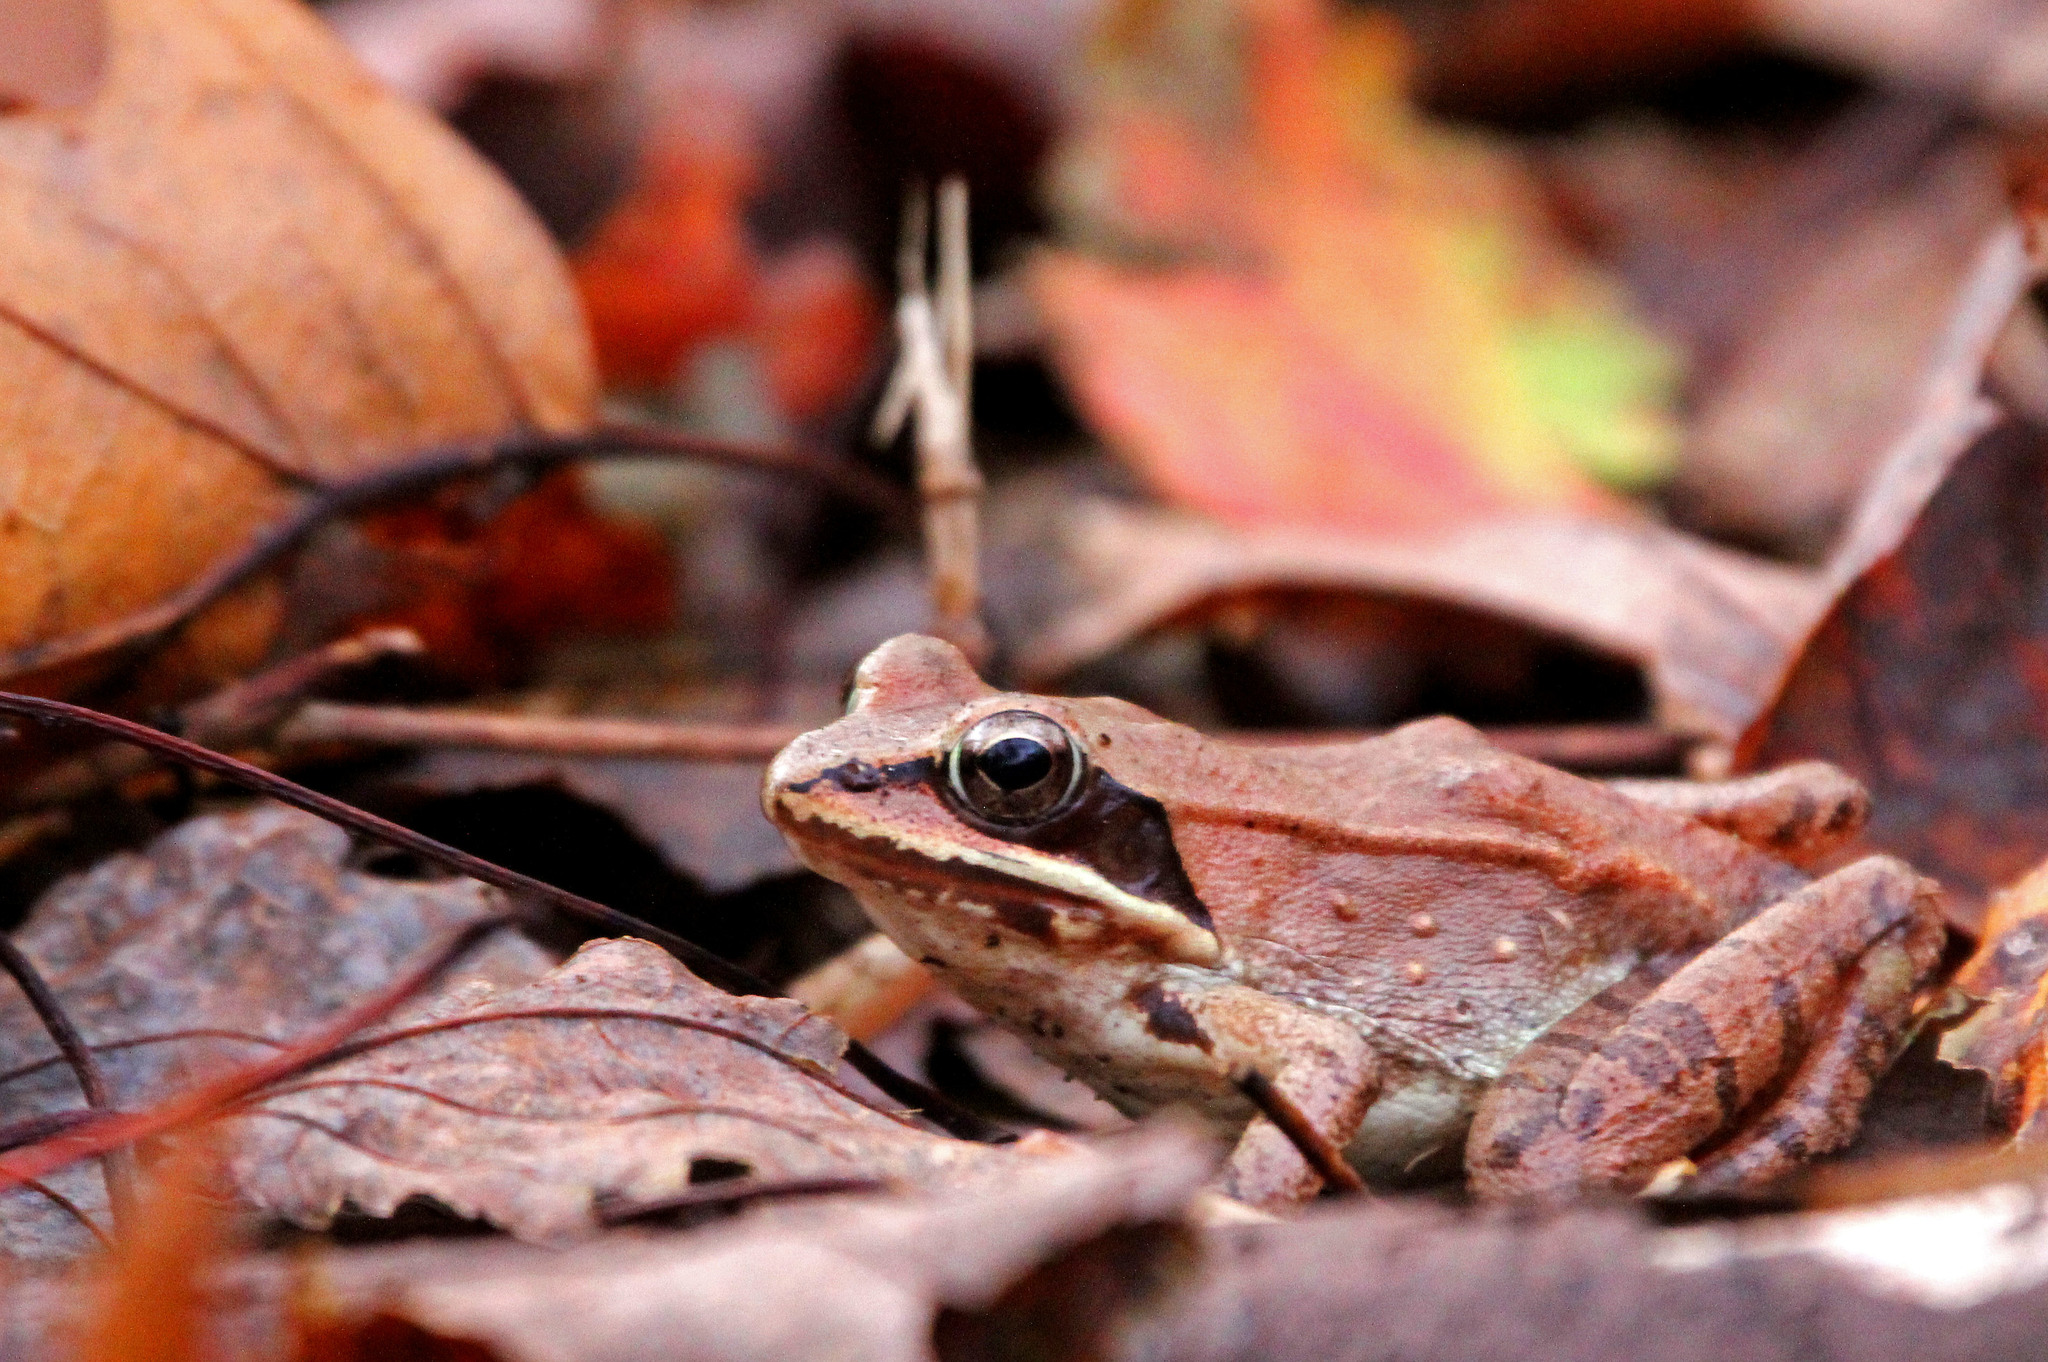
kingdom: Animalia
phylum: Chordata
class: Amphibia
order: Anura
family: Ranidae
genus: Lithobates
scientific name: Lithobates sylvaticus
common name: Wood frog
